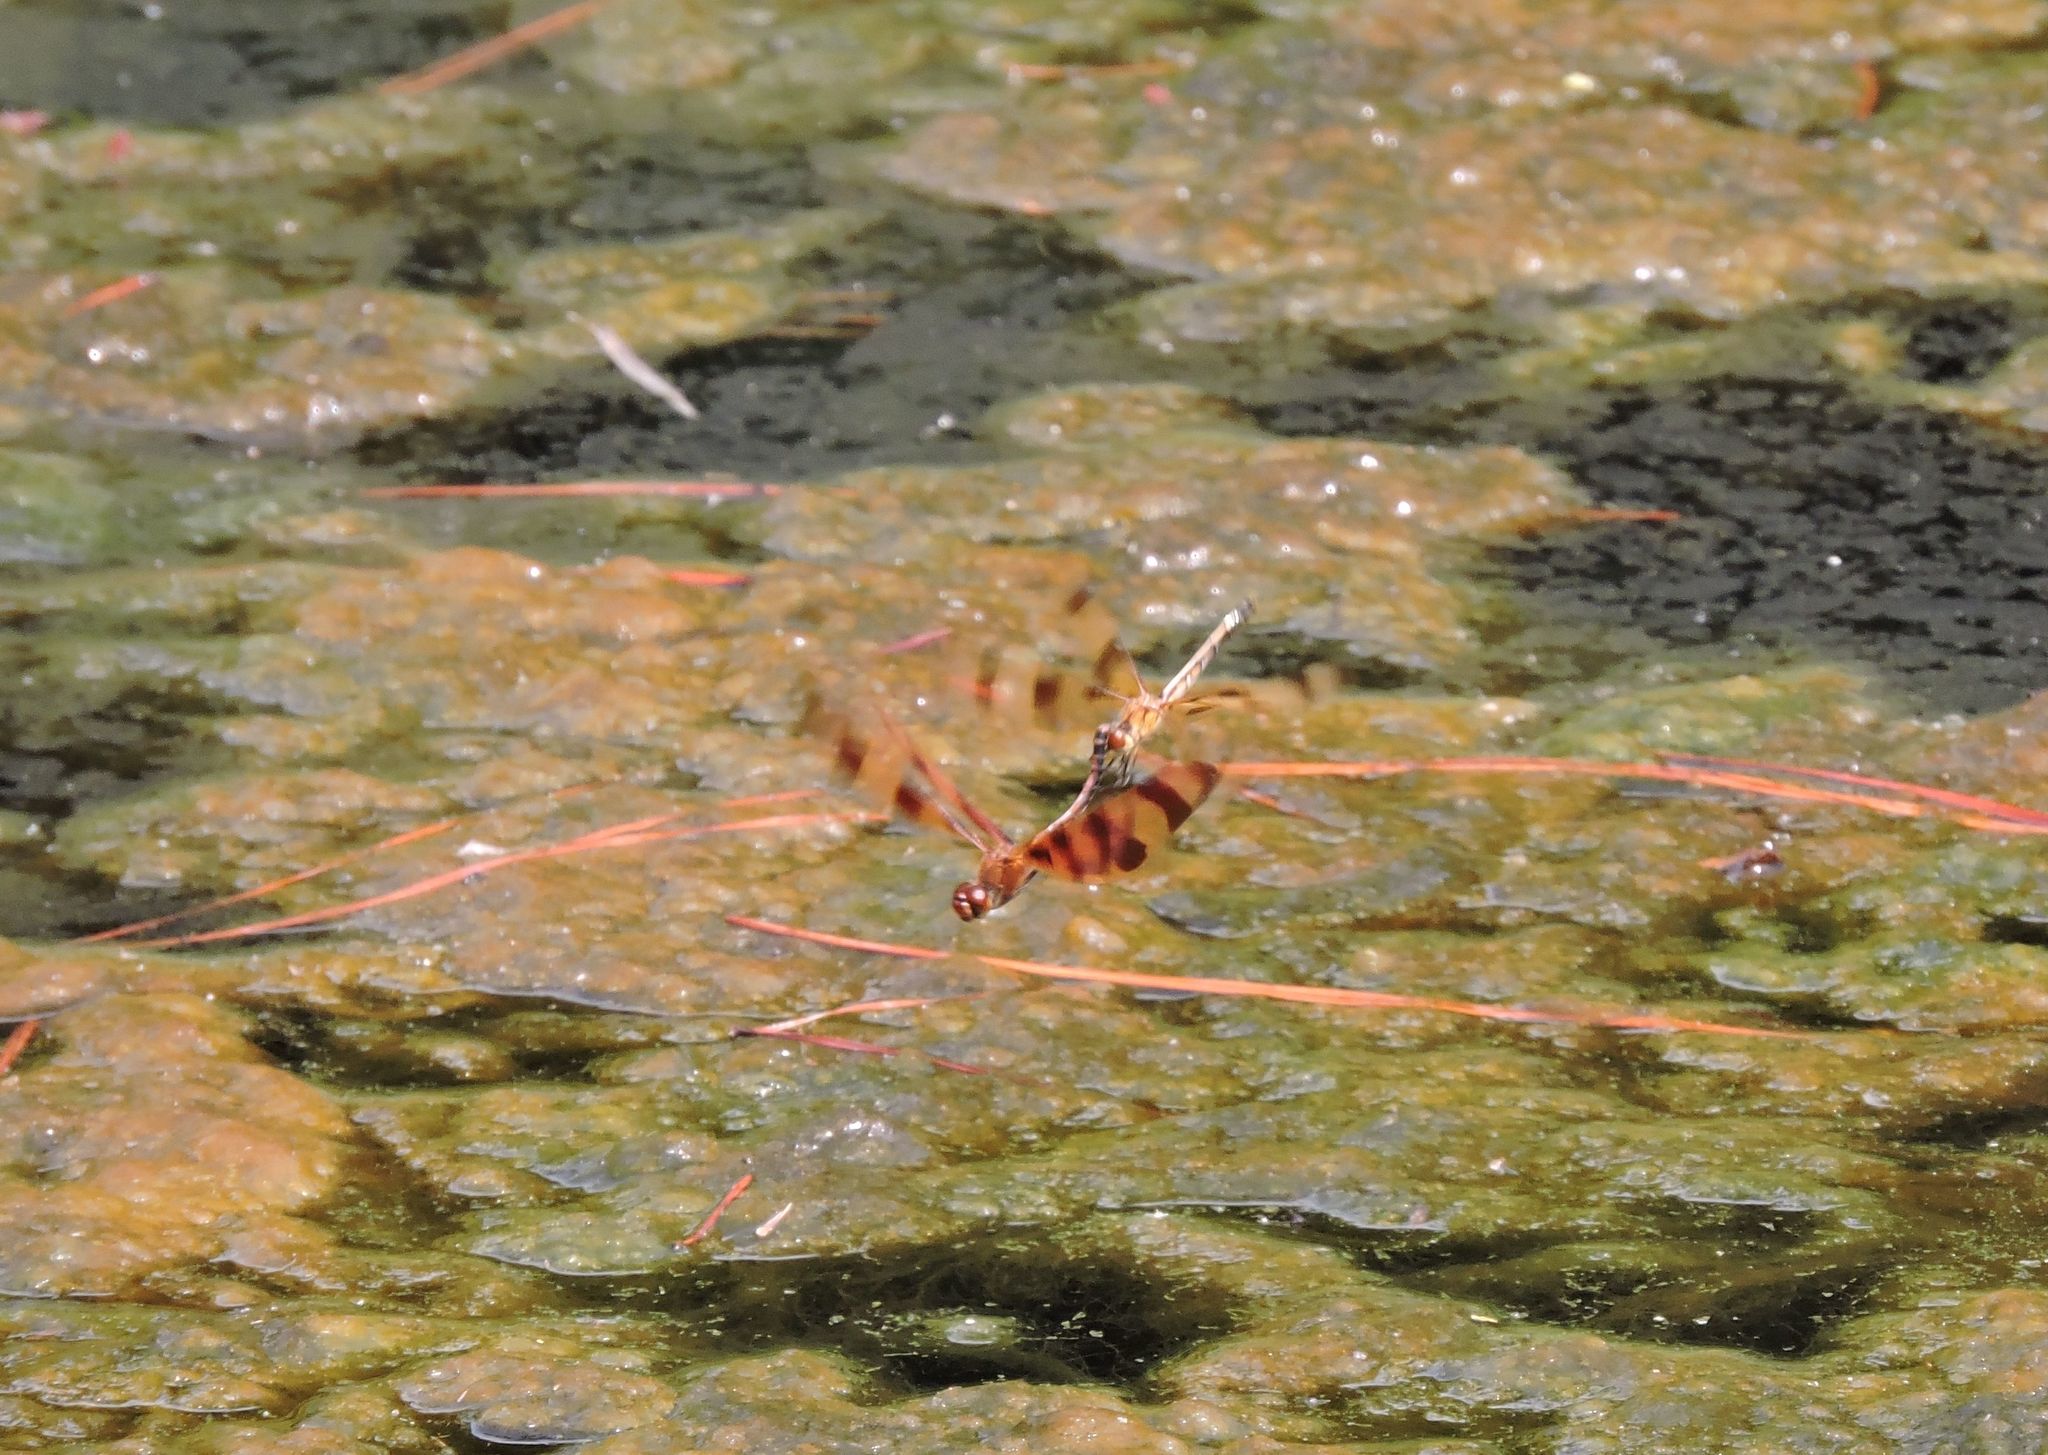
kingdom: Animalia
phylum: Arthropoda
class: Insecta
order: Odonata
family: Libellulidae
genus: Celithemis
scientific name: Celithemis eponina
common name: Halloween pennant
